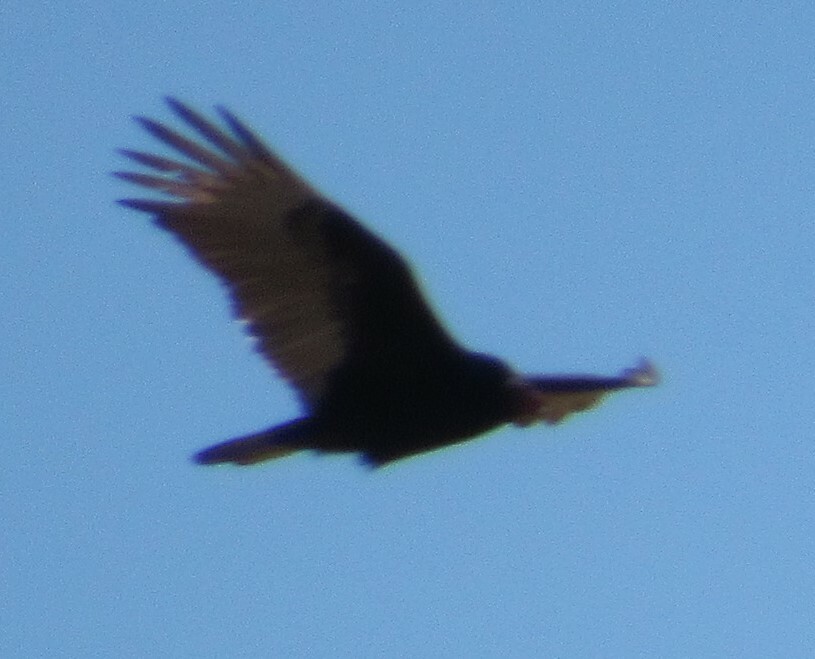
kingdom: Animalia
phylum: Chordata
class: Aves
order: Accipitriformes
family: Cathartidae
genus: Cathartes
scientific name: Cathartes aura
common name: Turkey vulture
